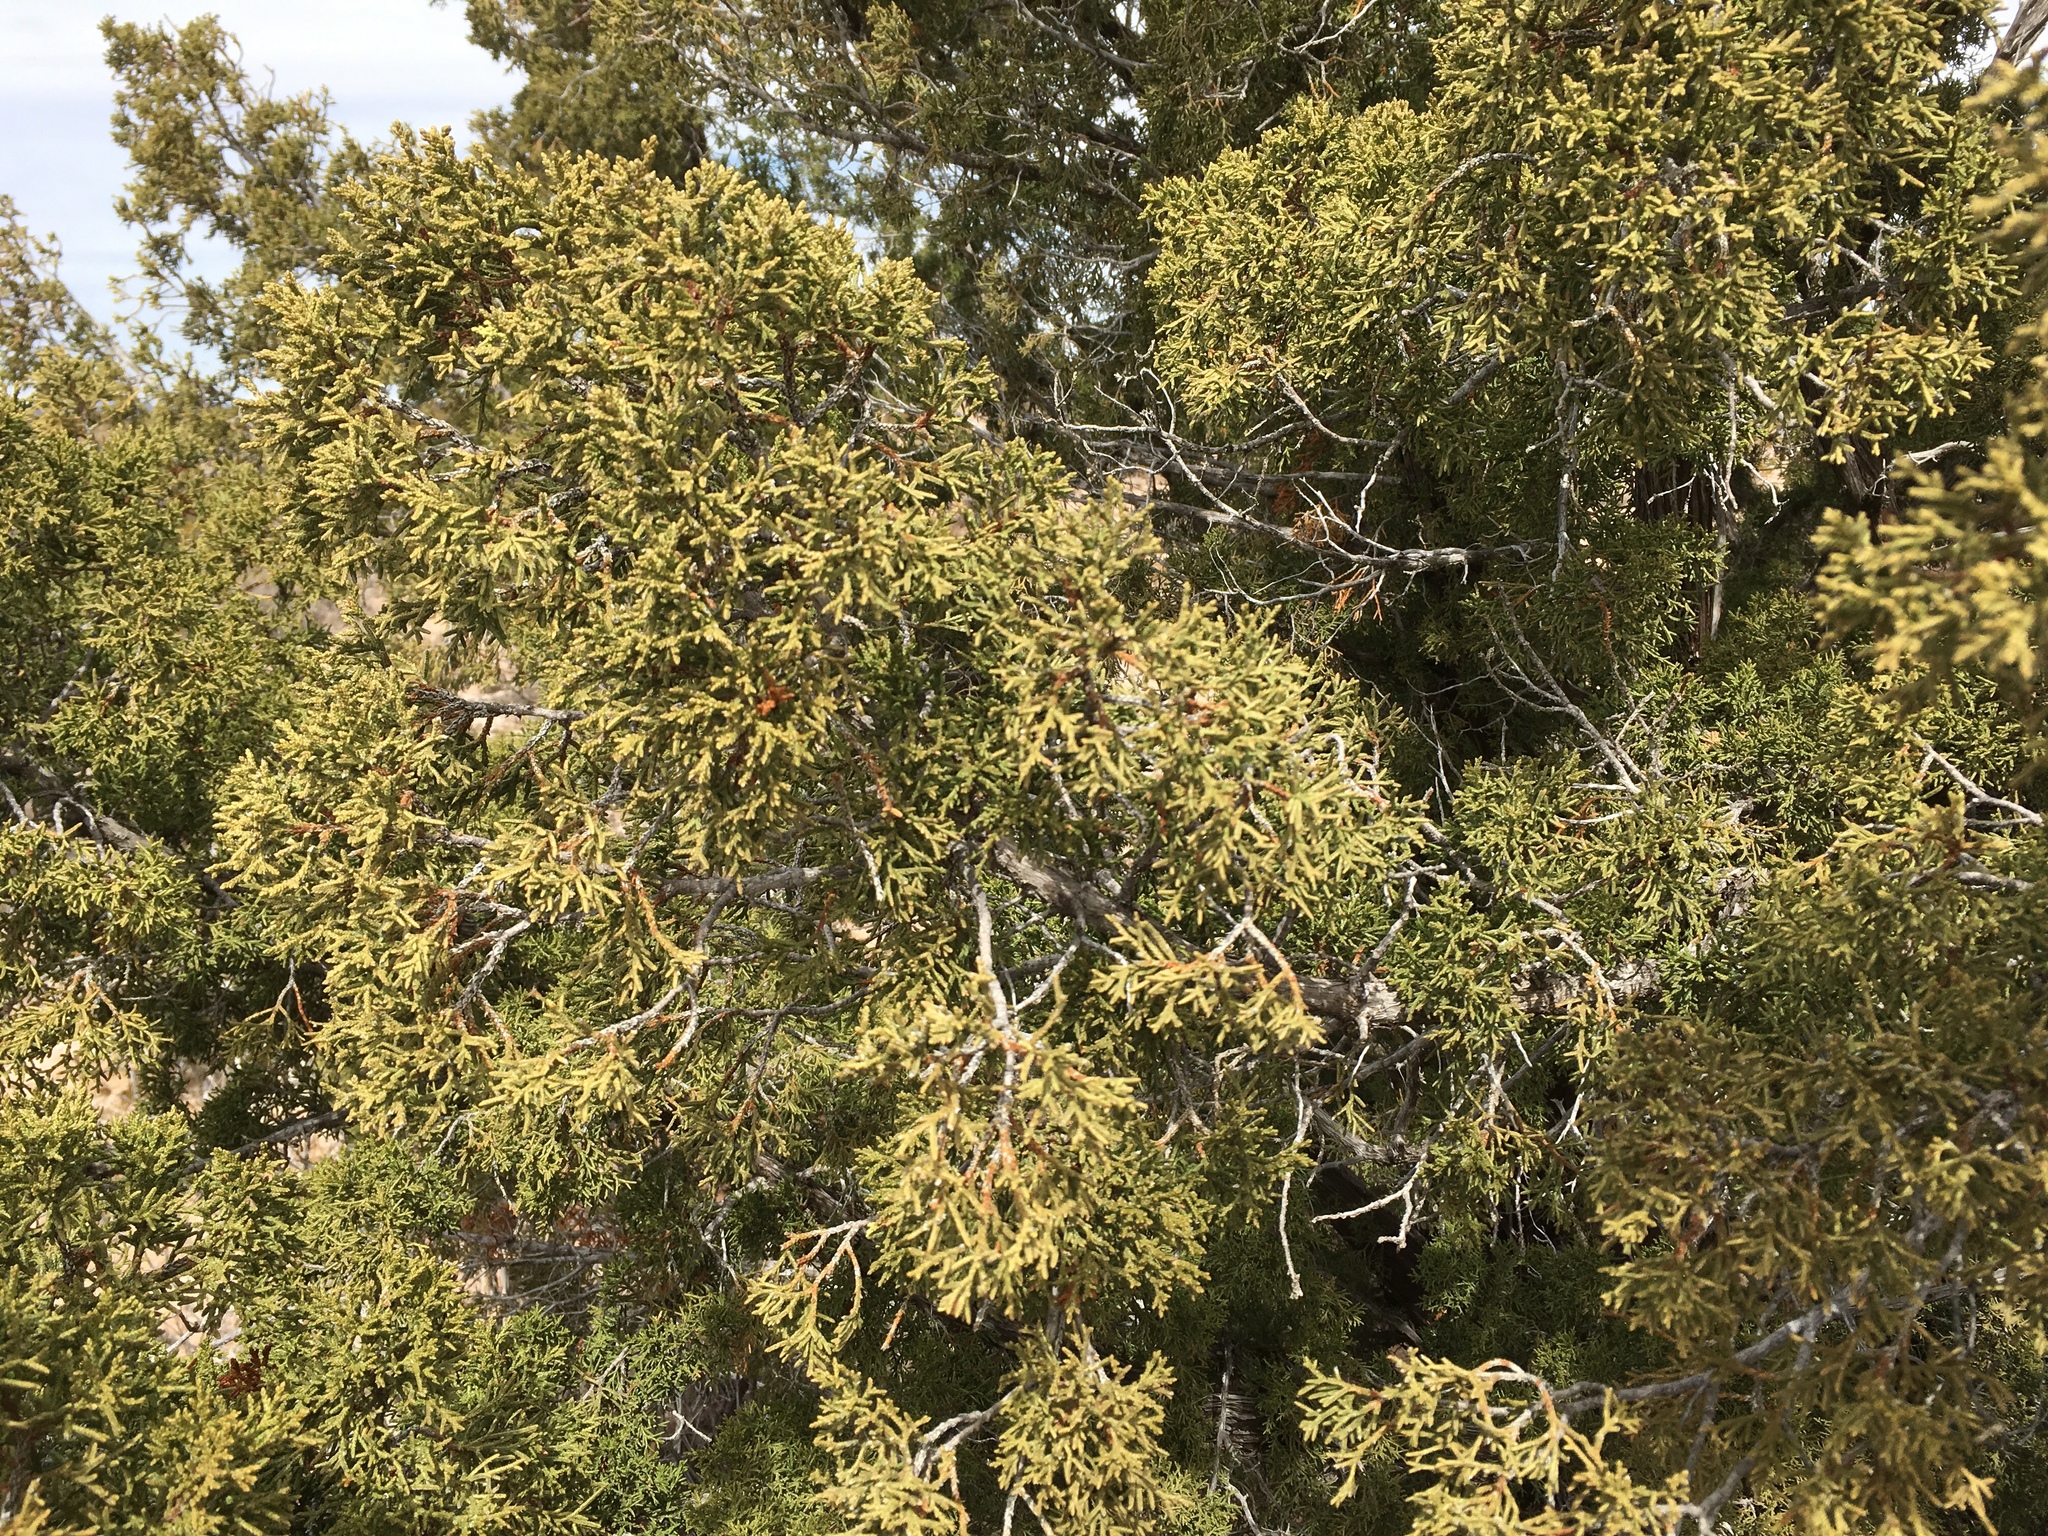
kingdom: Plantae
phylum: Tracheophyta
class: Pinopsida
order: Pinales
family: Cupressaceae
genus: Juniperus
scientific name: Juniperus arizonica
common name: Arizona juniper
